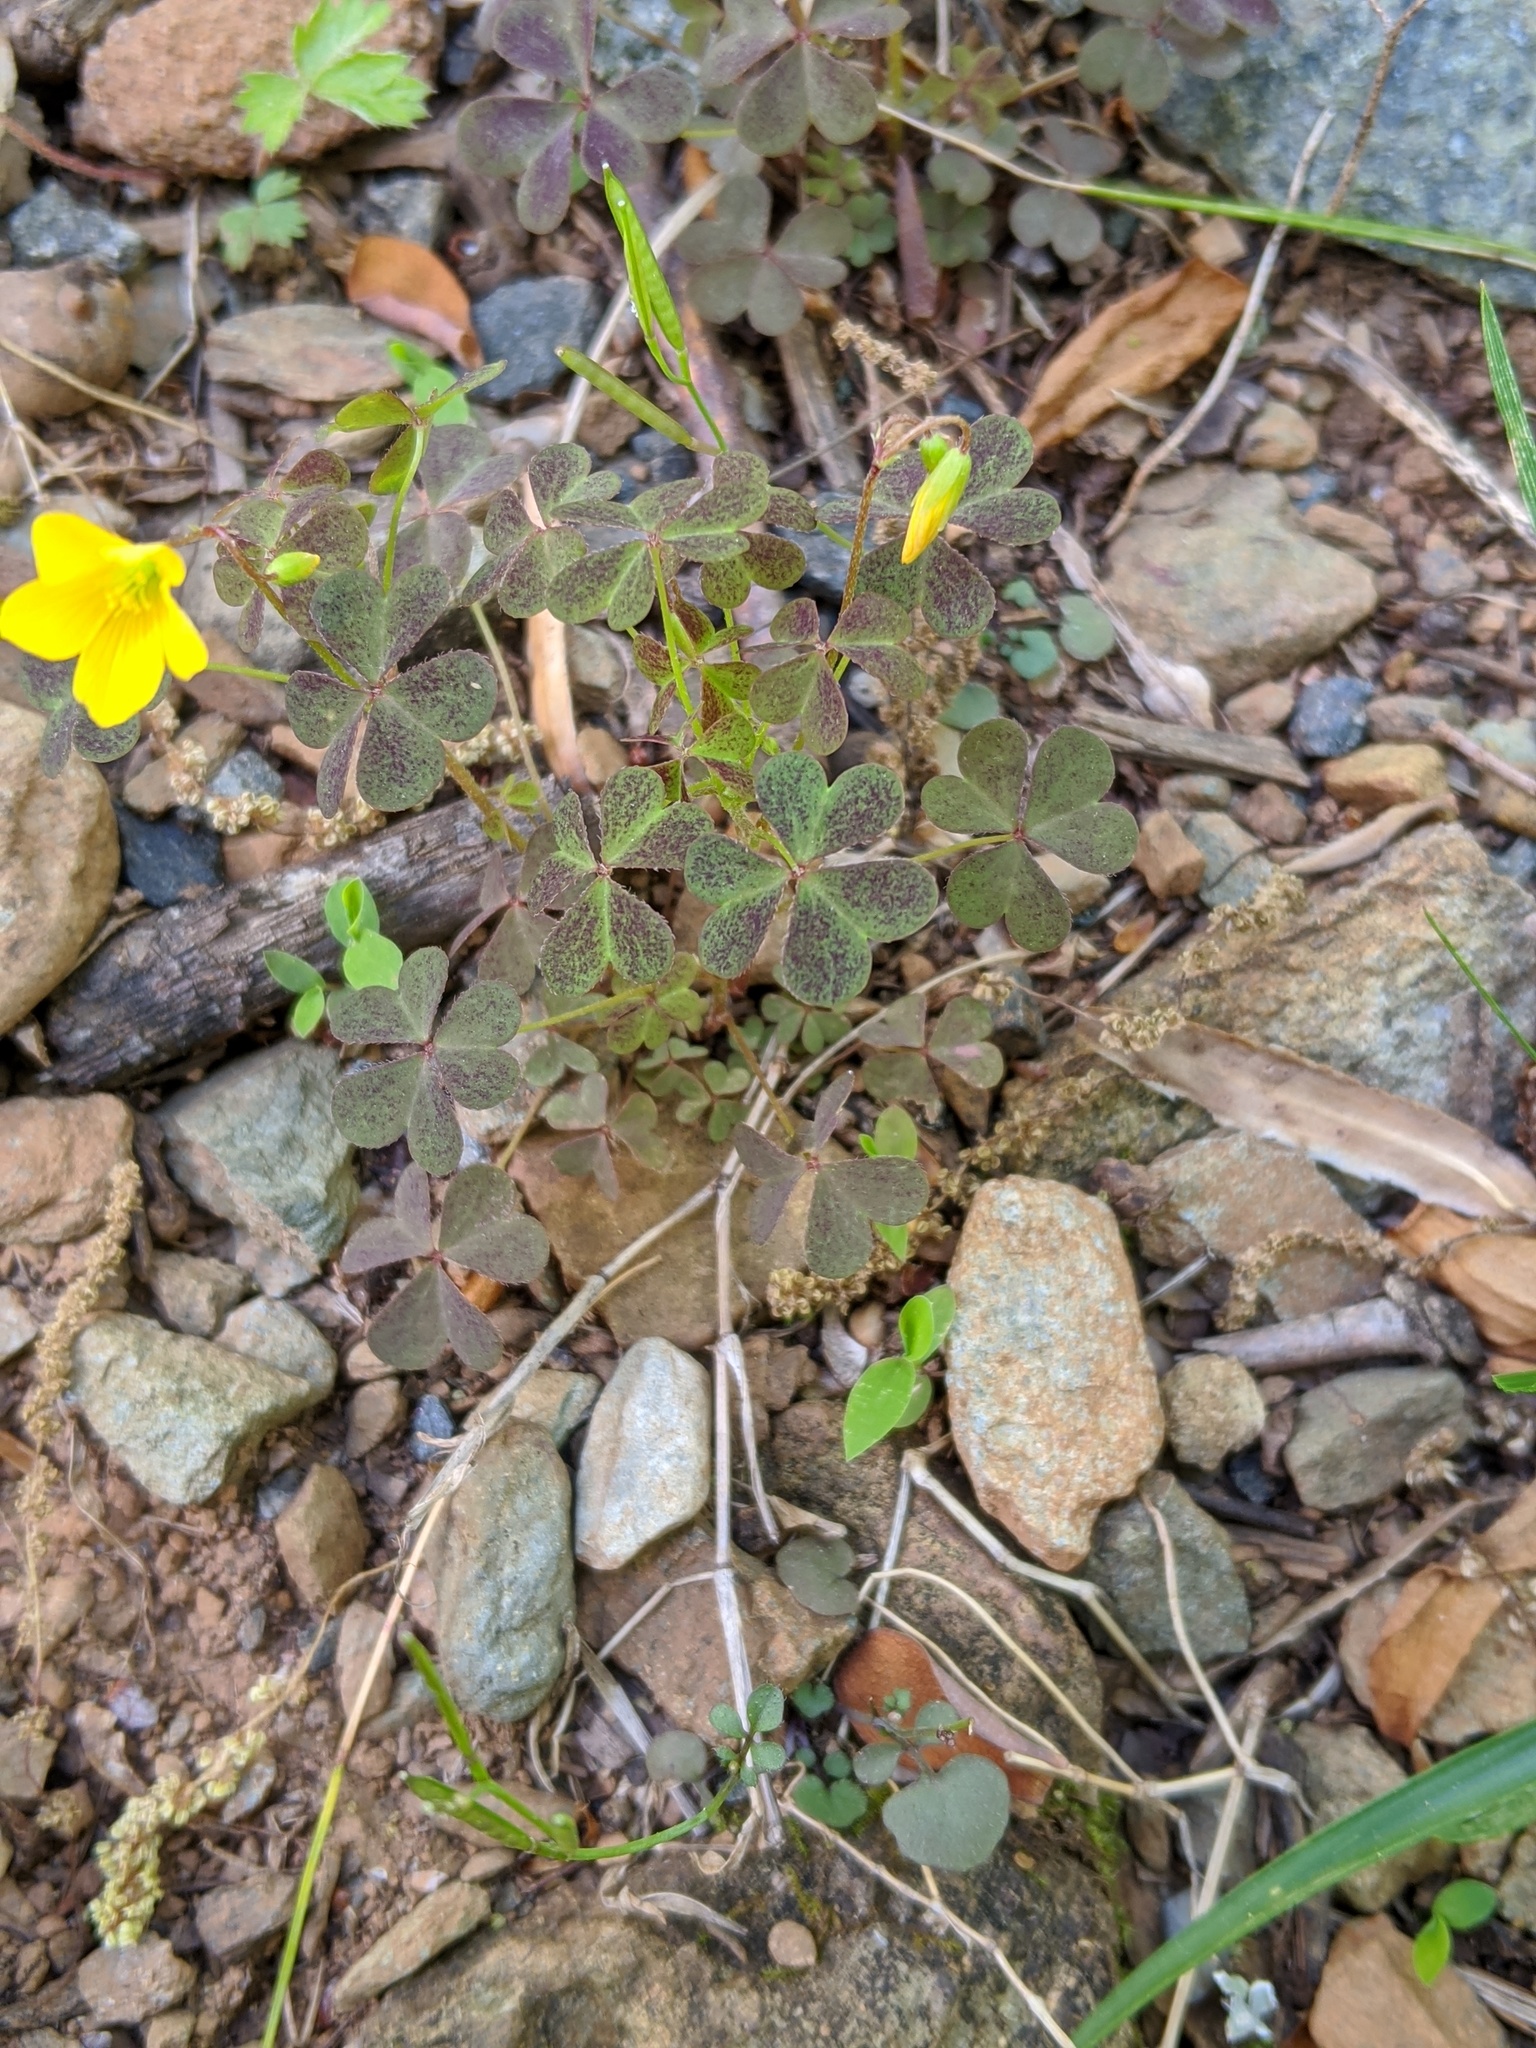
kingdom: Plantae
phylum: Tracheophyta
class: Magnoliopsida
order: Oxalidales
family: Oxalidaceae
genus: Oxalis
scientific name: Oxalis corniculata
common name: Procumbent yellow-sorrel
